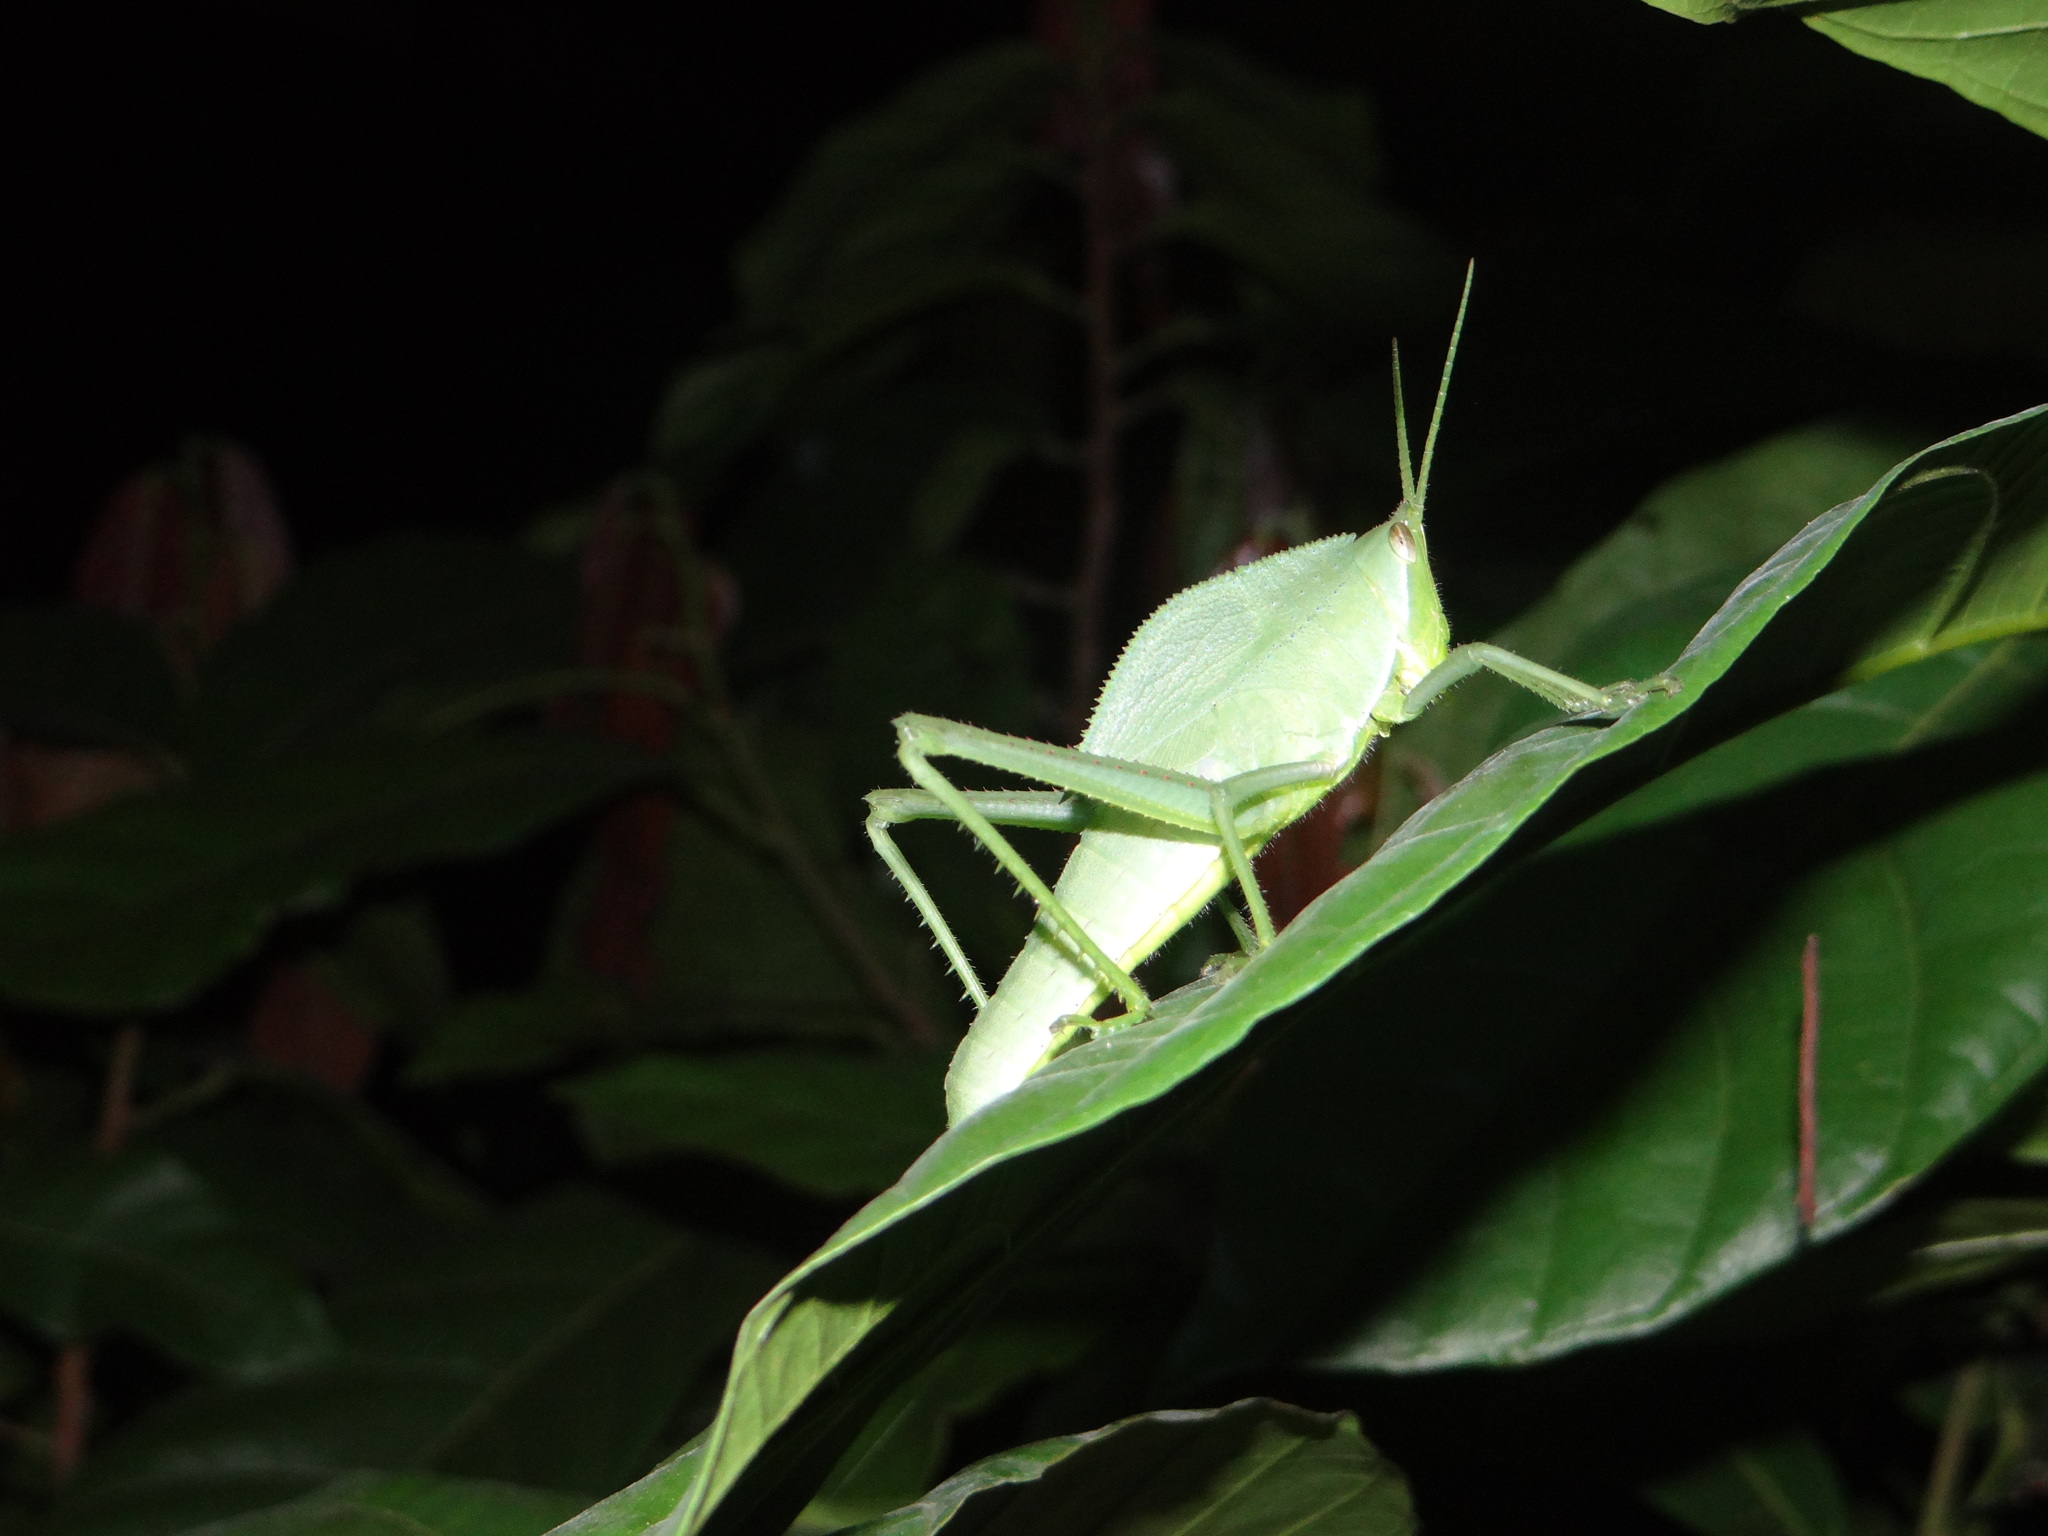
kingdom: Animalia
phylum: Arthropoda
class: Insecta
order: Orthoptera
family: Romaleidae
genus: Prionolopha
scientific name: Prionolopha serrata
